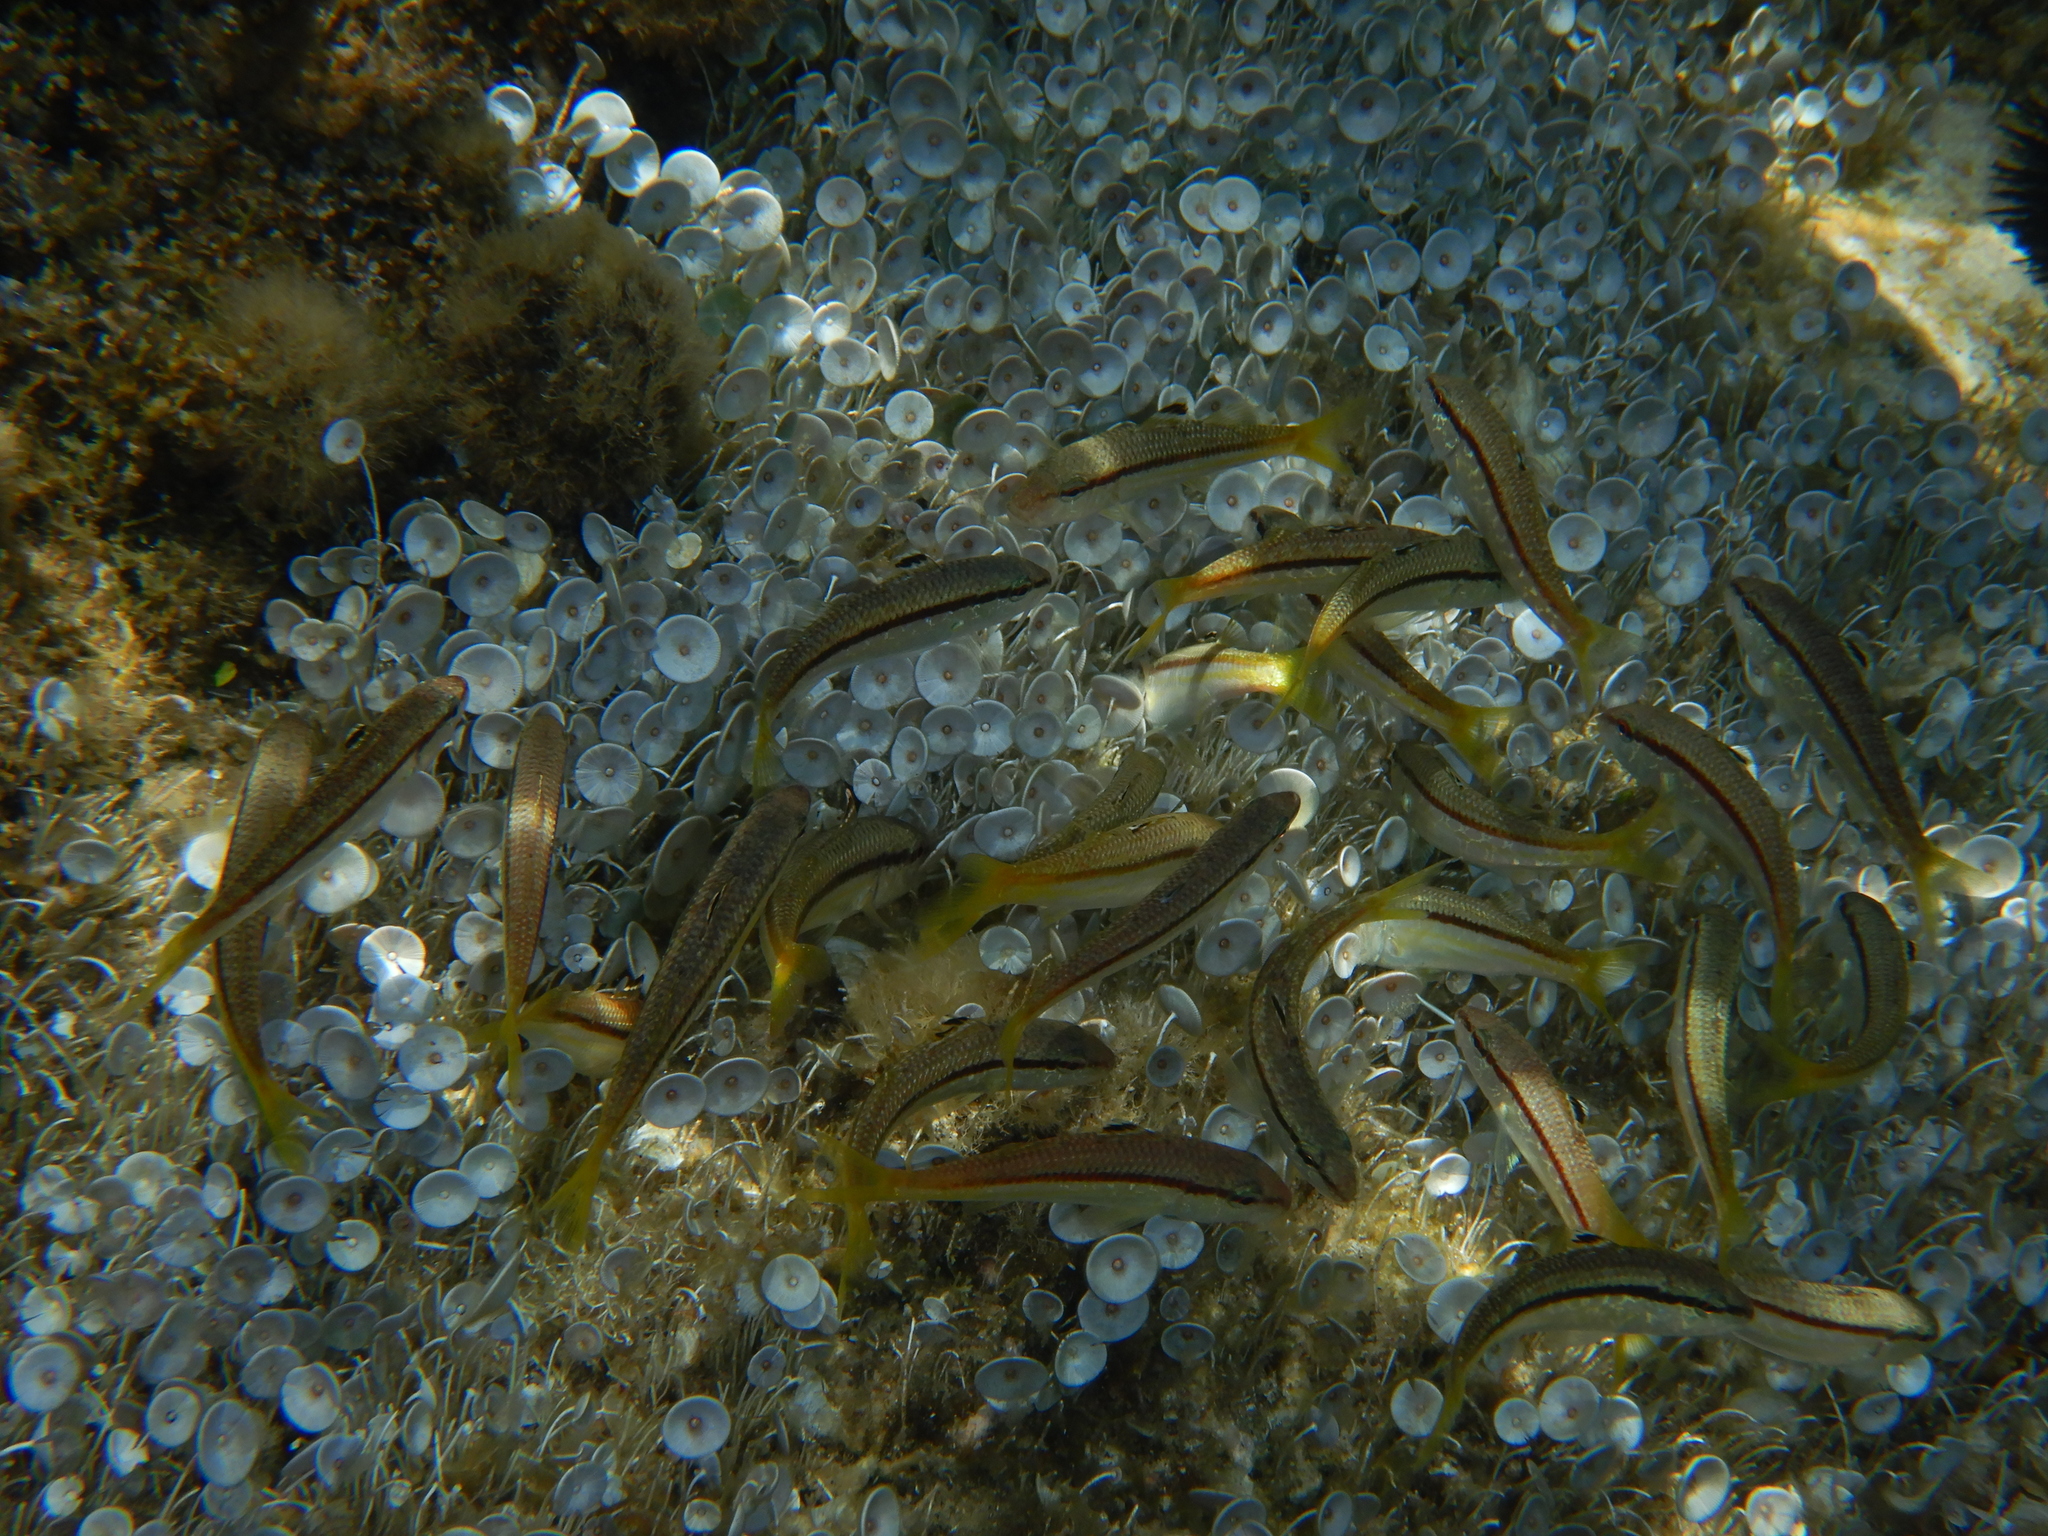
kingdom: Animalia
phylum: Chordata
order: Perciformes
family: Mullidae
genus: Mullus
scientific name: Mullus surmuletus
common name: Red mullet
